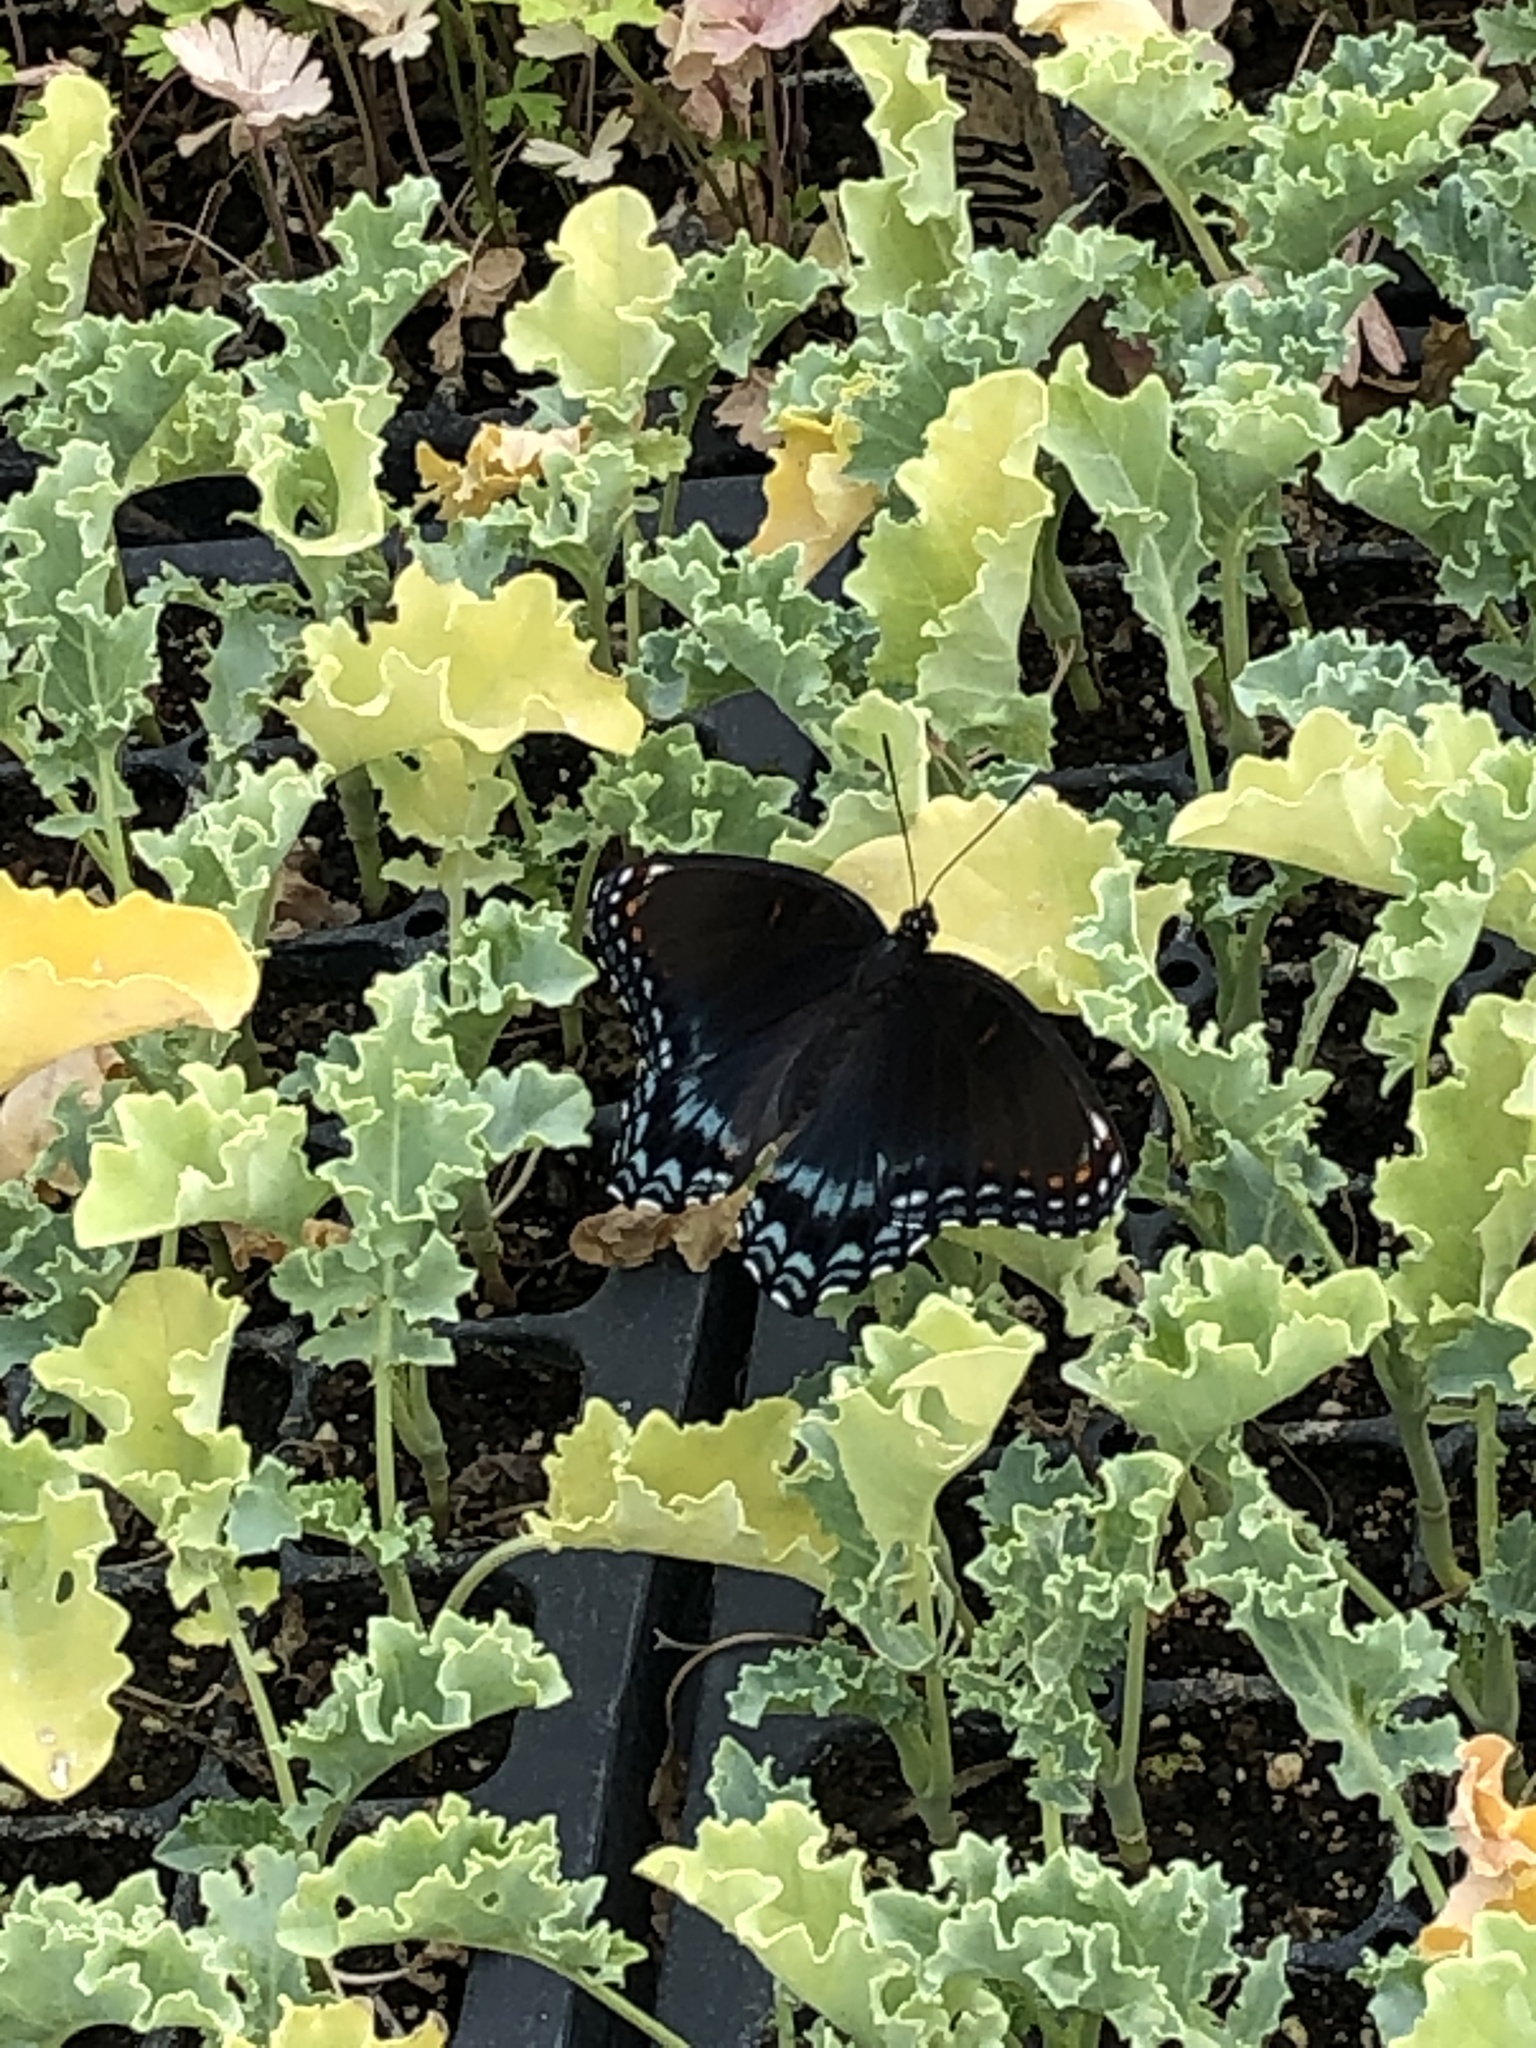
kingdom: Animalia
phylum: Arthropoda
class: Insecta
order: Lepidoptera
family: Nymphalidae
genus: Limenitis
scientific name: Limenitis astyanax
